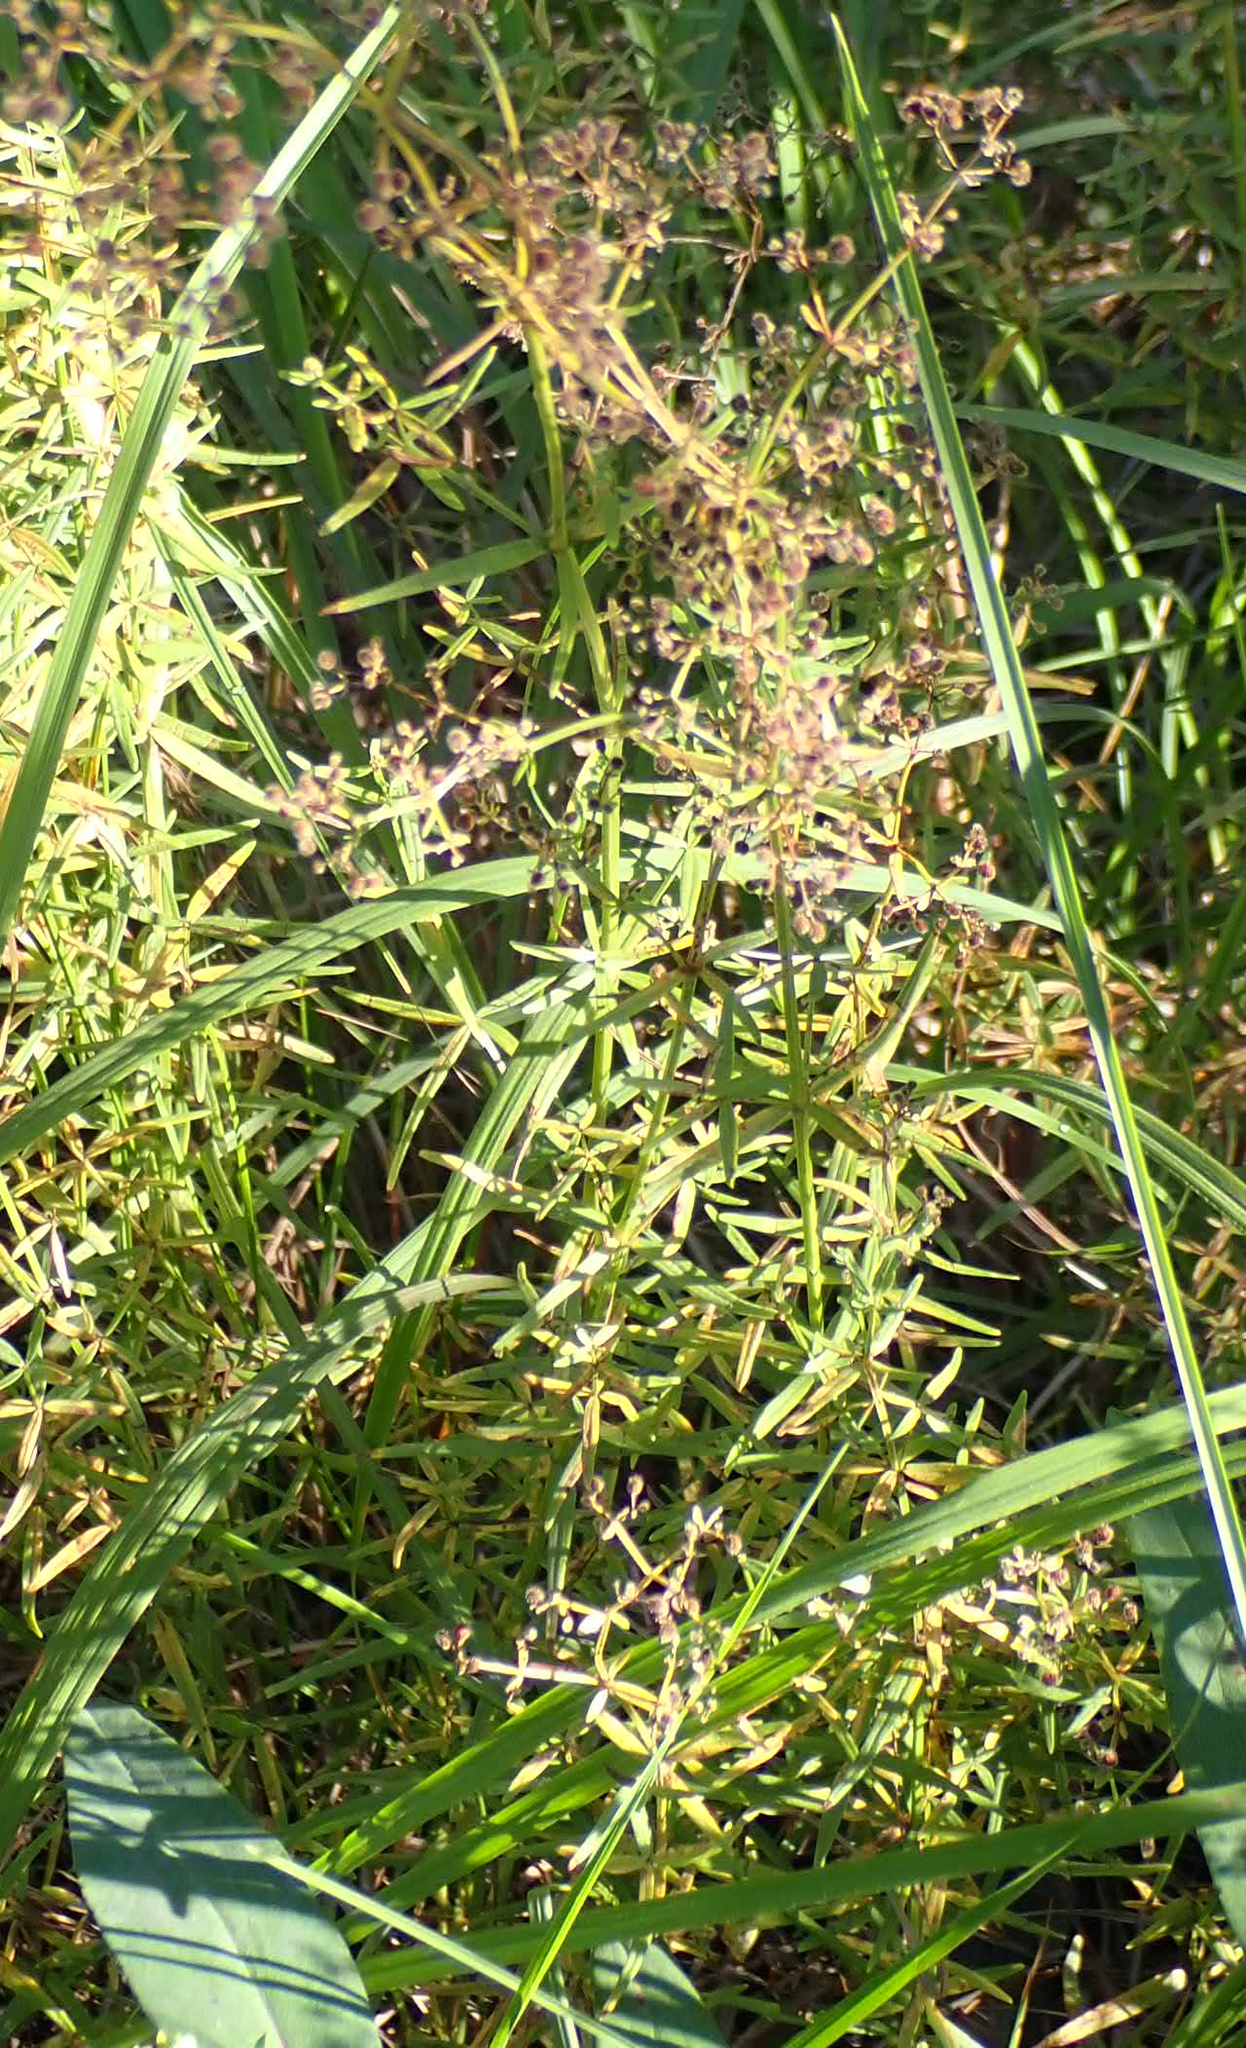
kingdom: Plantae
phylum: Tracheophyta
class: Magnoliopsida
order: Gentianales
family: Rubiaceae
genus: Galium
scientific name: Galium boreale
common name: Northern bedstraw
